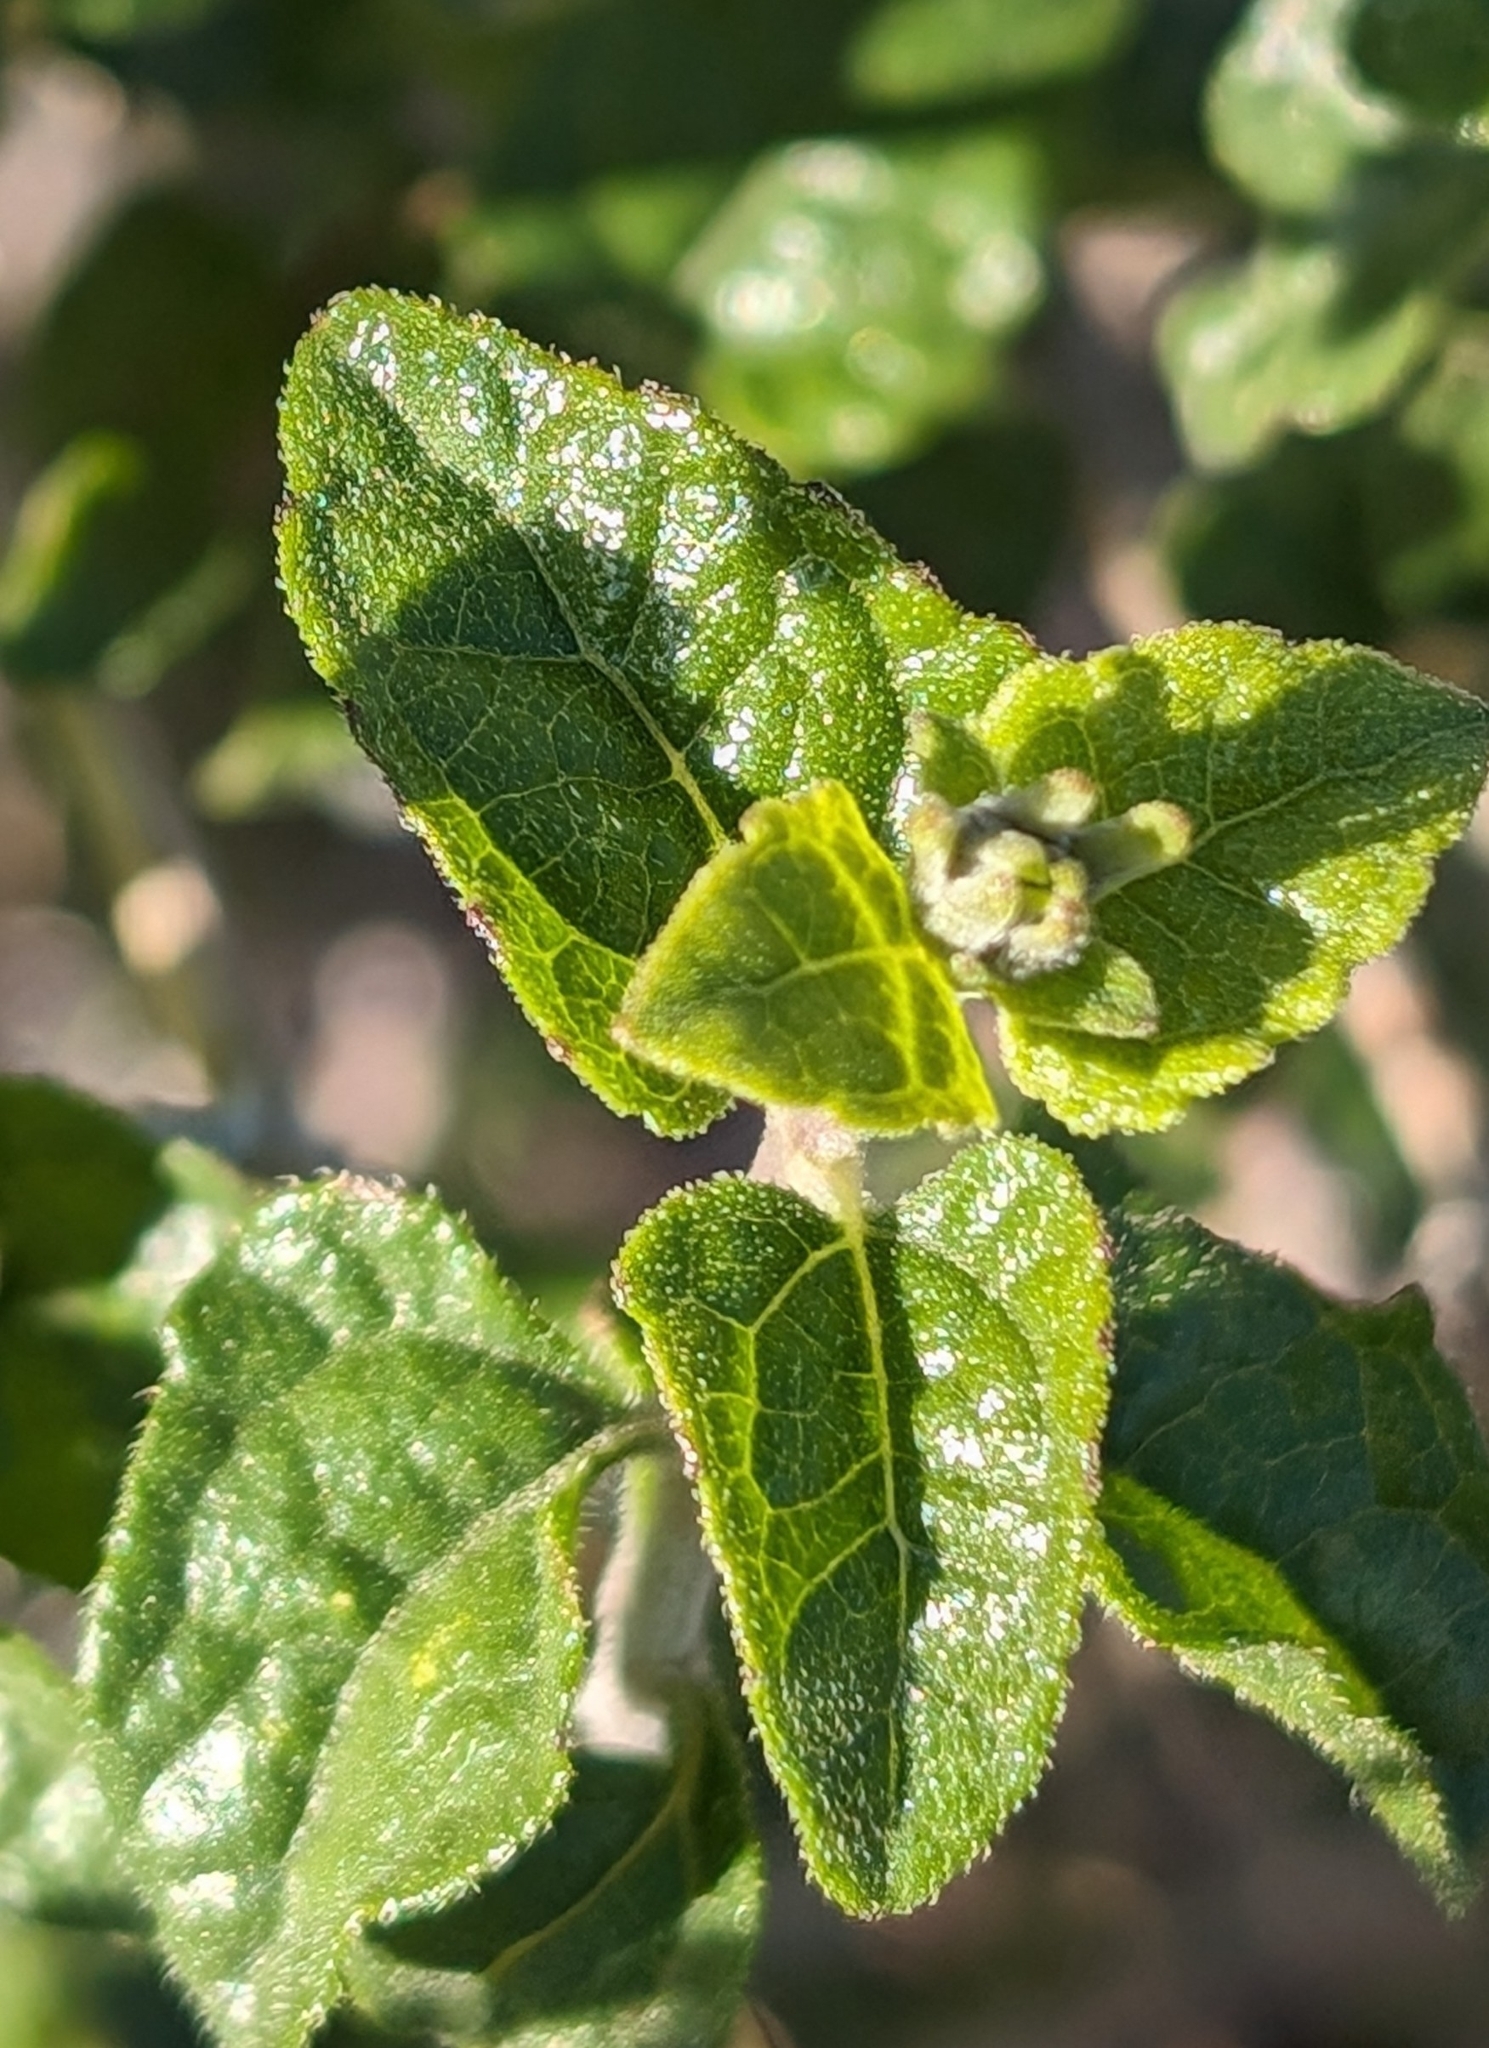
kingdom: Plantae
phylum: Tracheophyta
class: Magnoliopsida
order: Asterales
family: Asteraceae
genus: Bahiopsis
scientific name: Bahiopsis parishii
